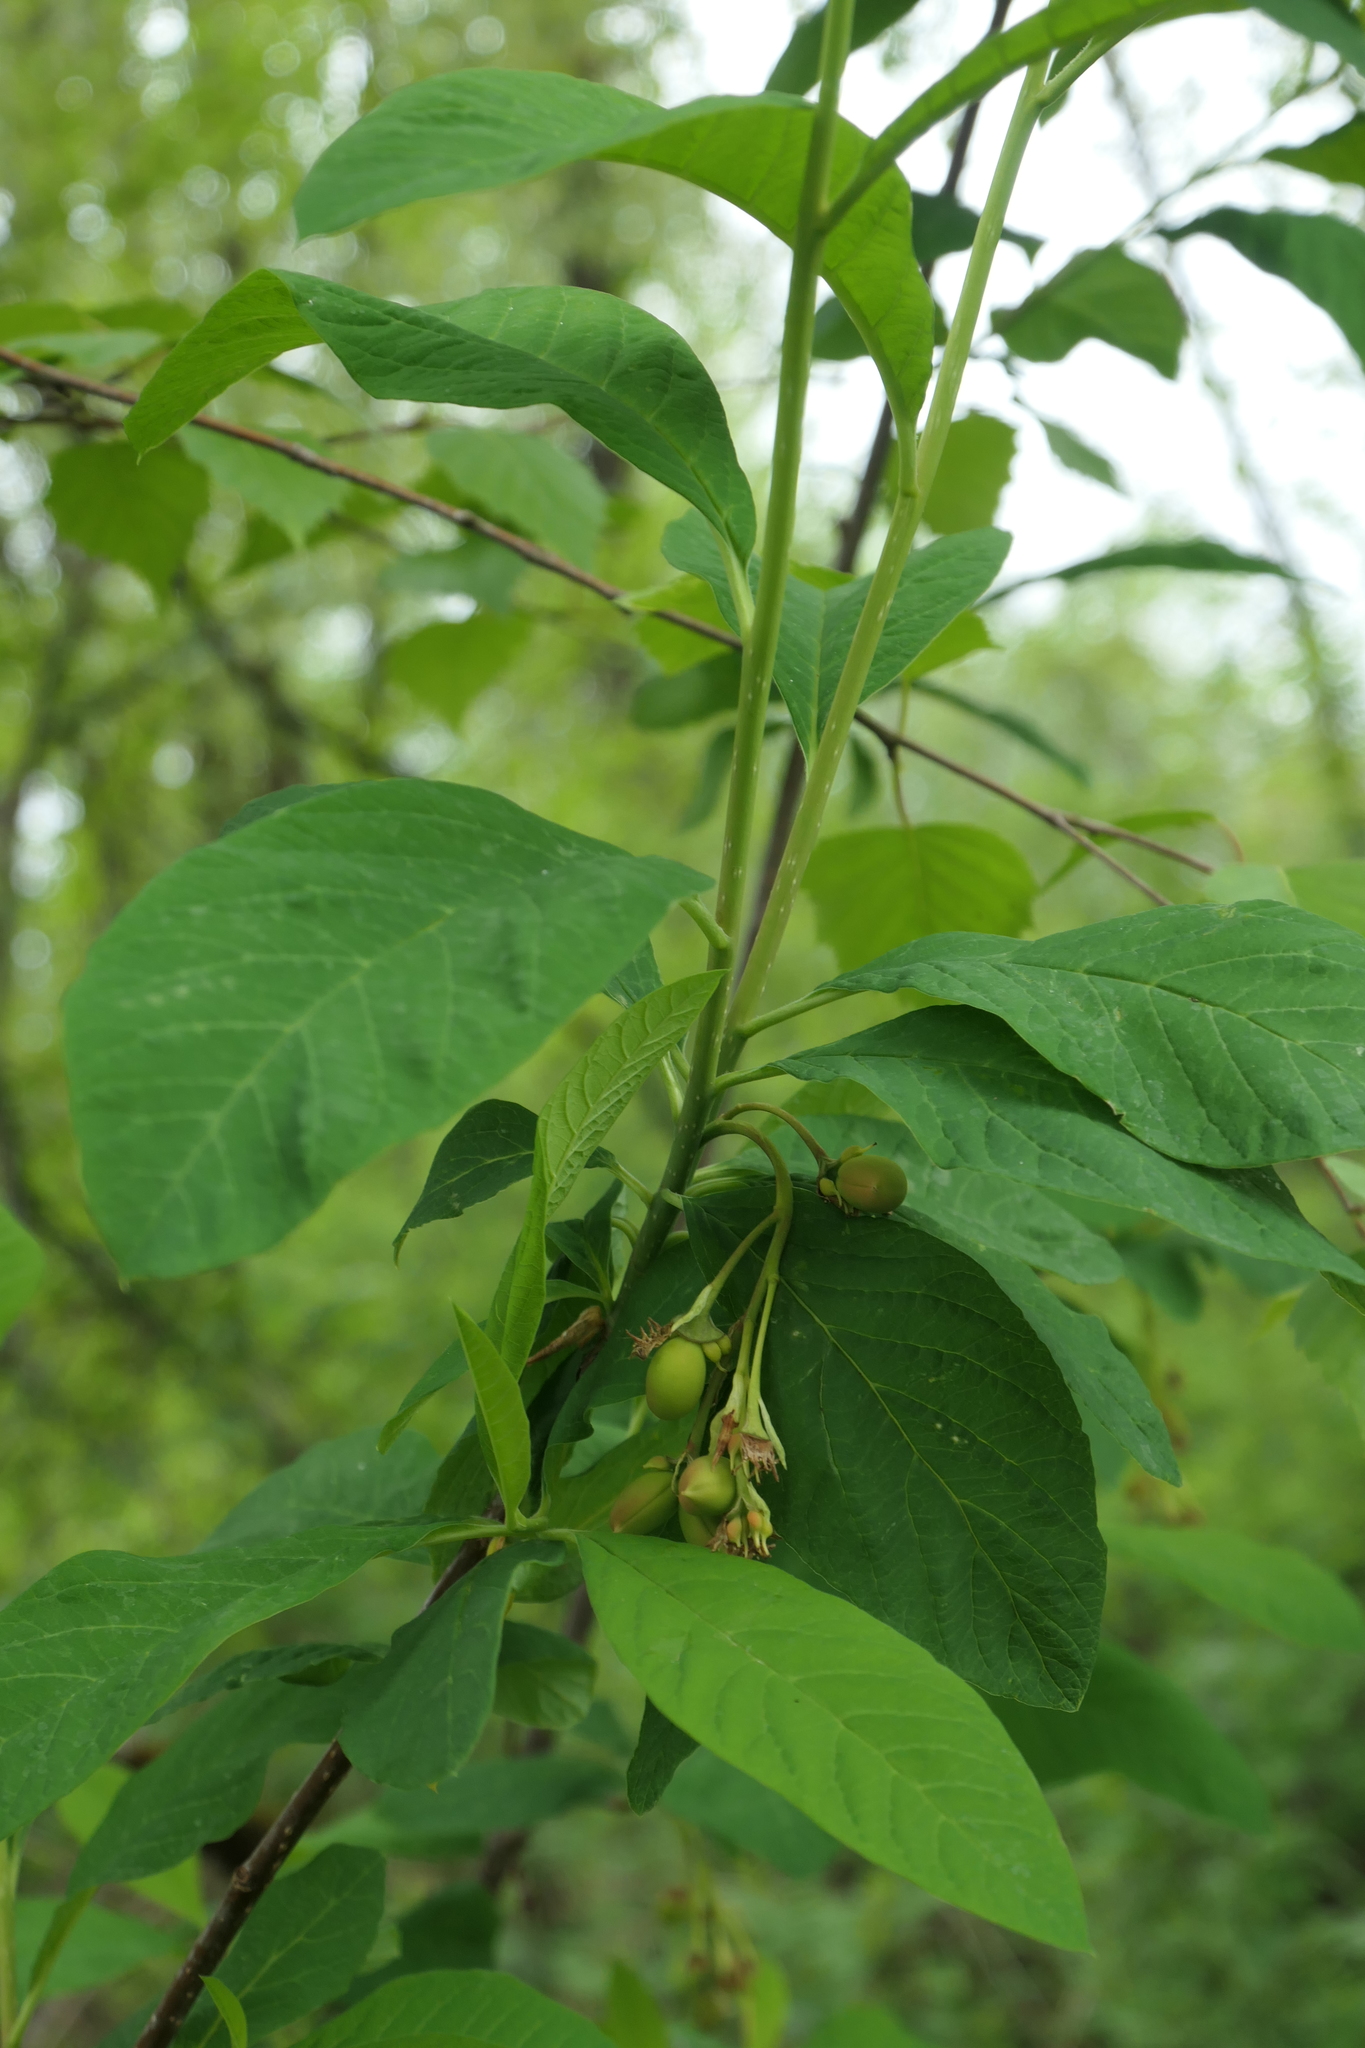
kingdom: Plantae
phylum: Tracheophyta
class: Magnoliopsida
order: Rosales
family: Rosaceae
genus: Oemleria
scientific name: Oemleria cerasiformis
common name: Osoberry
